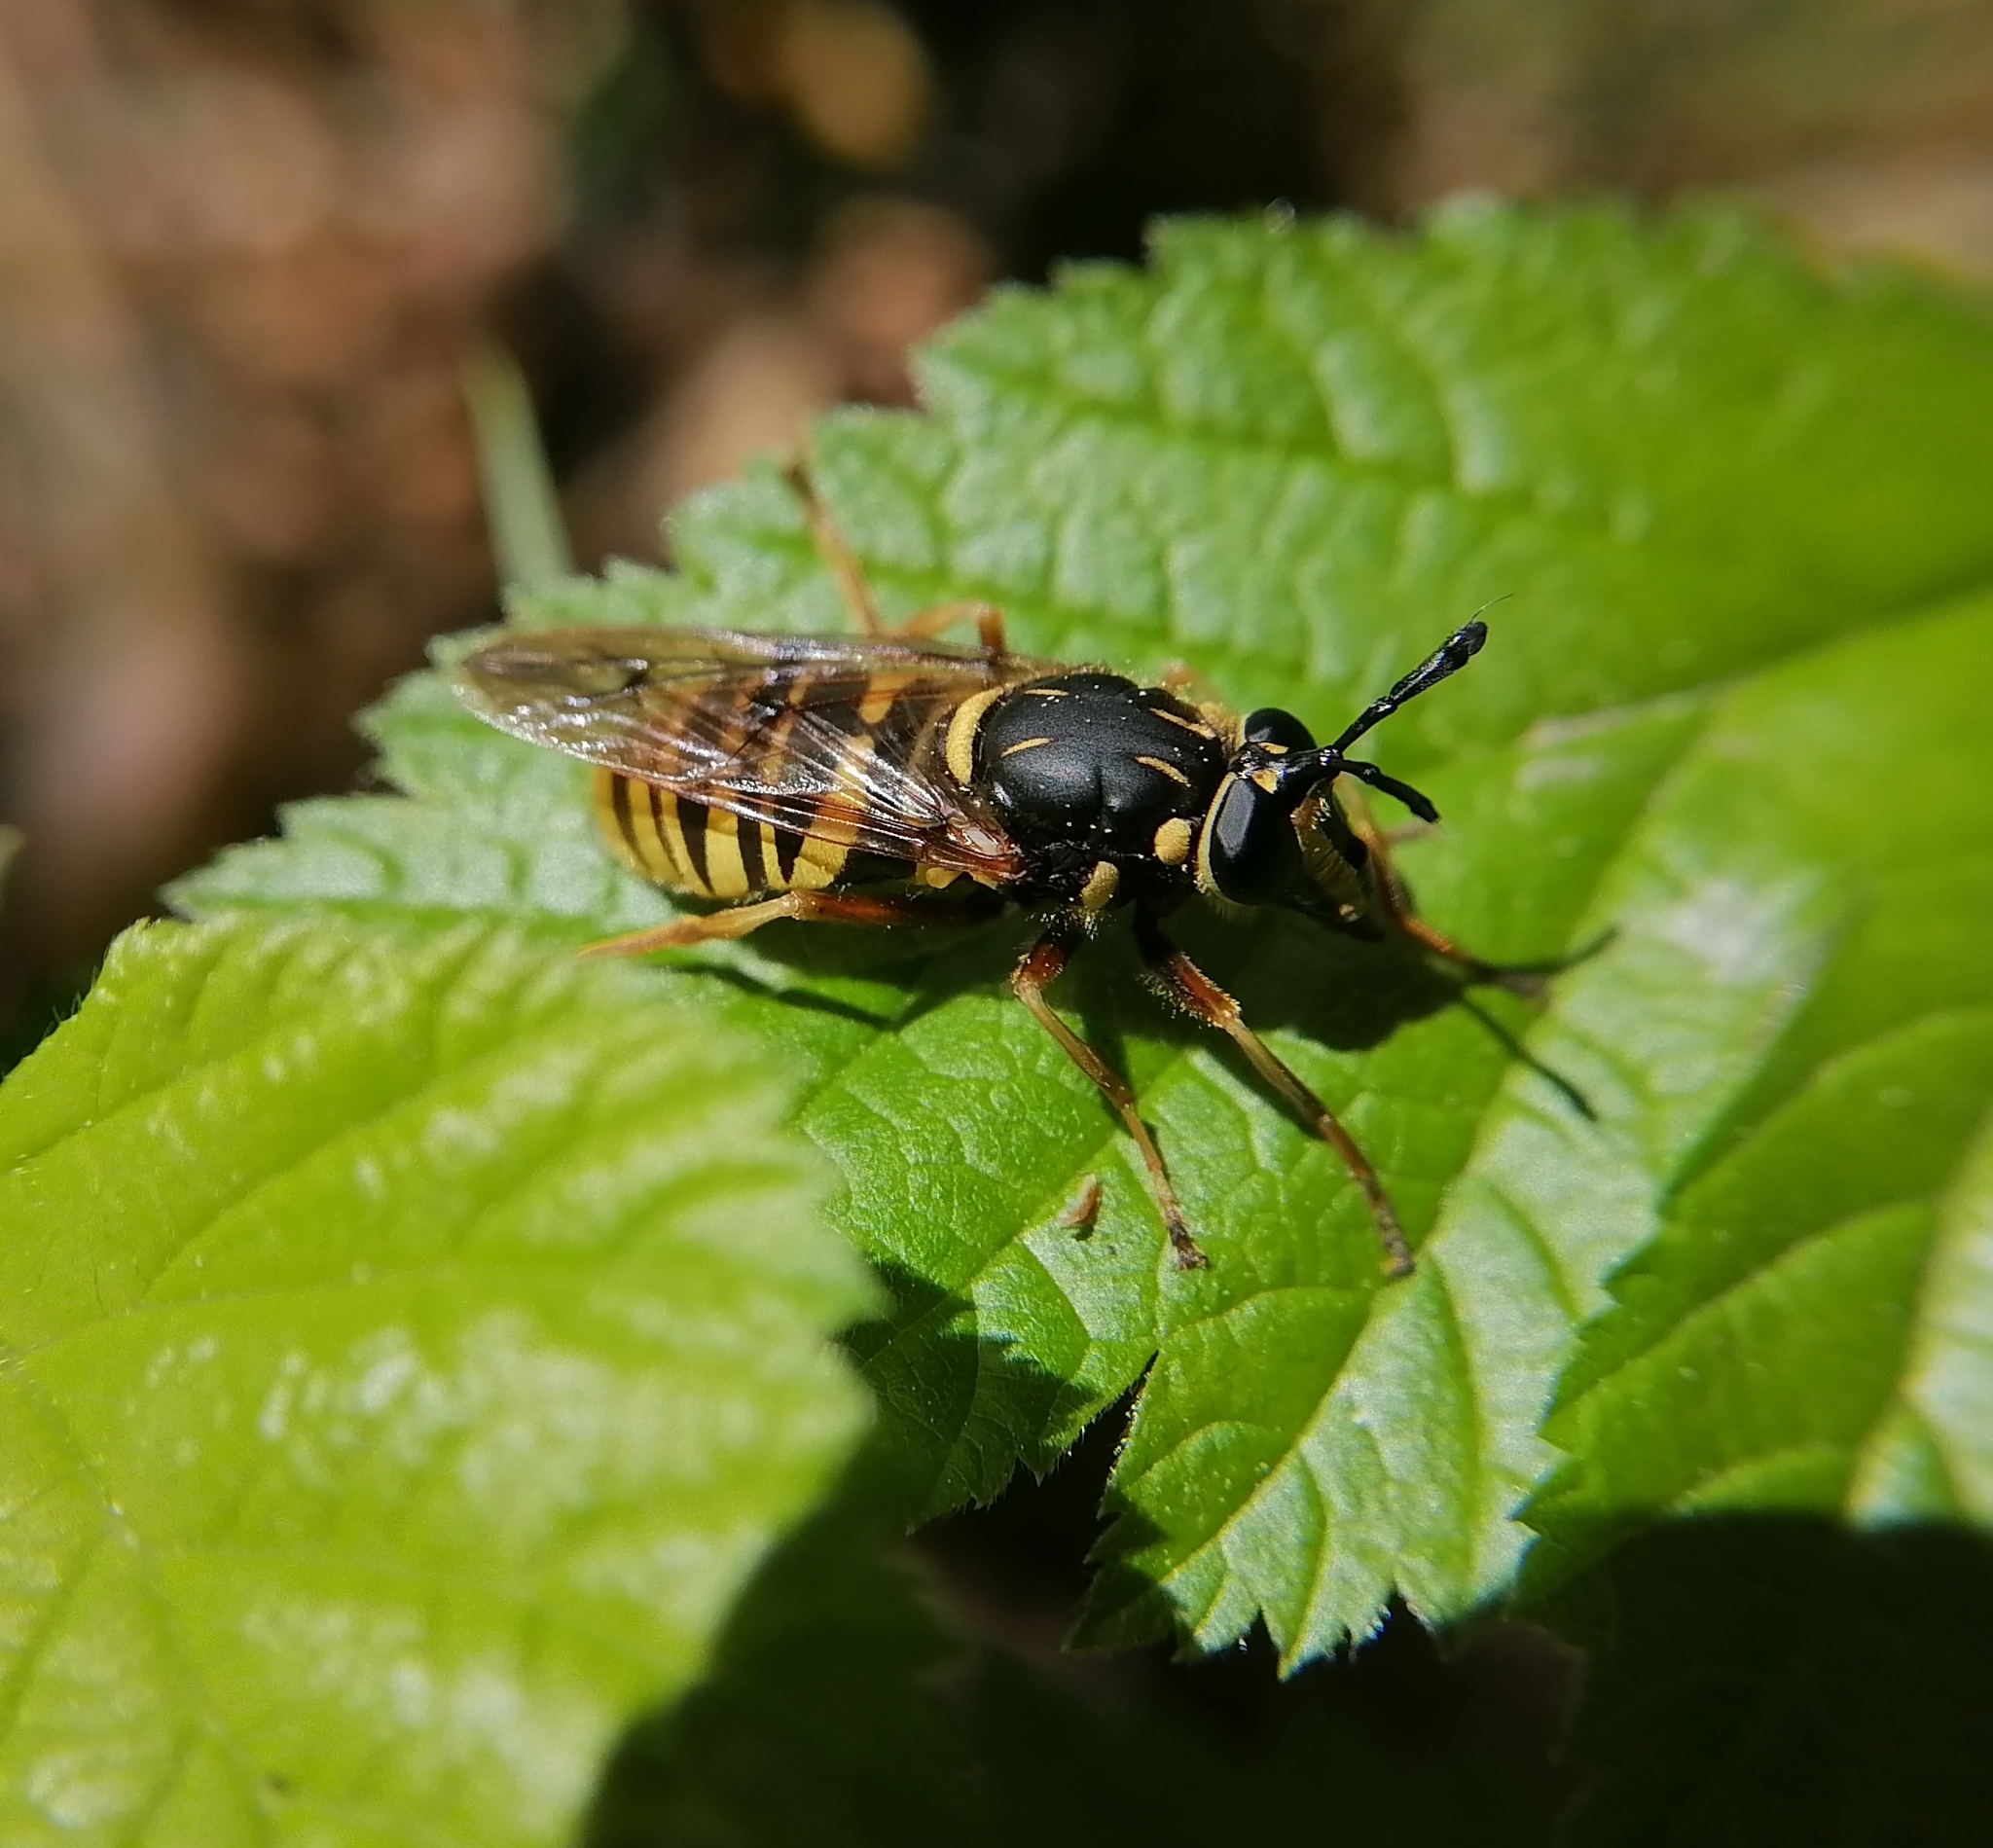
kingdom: Animalia
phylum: Arthropoda
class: Insecta
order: Diptera
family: Syrphidae
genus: Sphecomyia
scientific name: Sphecomyia vespiformis
